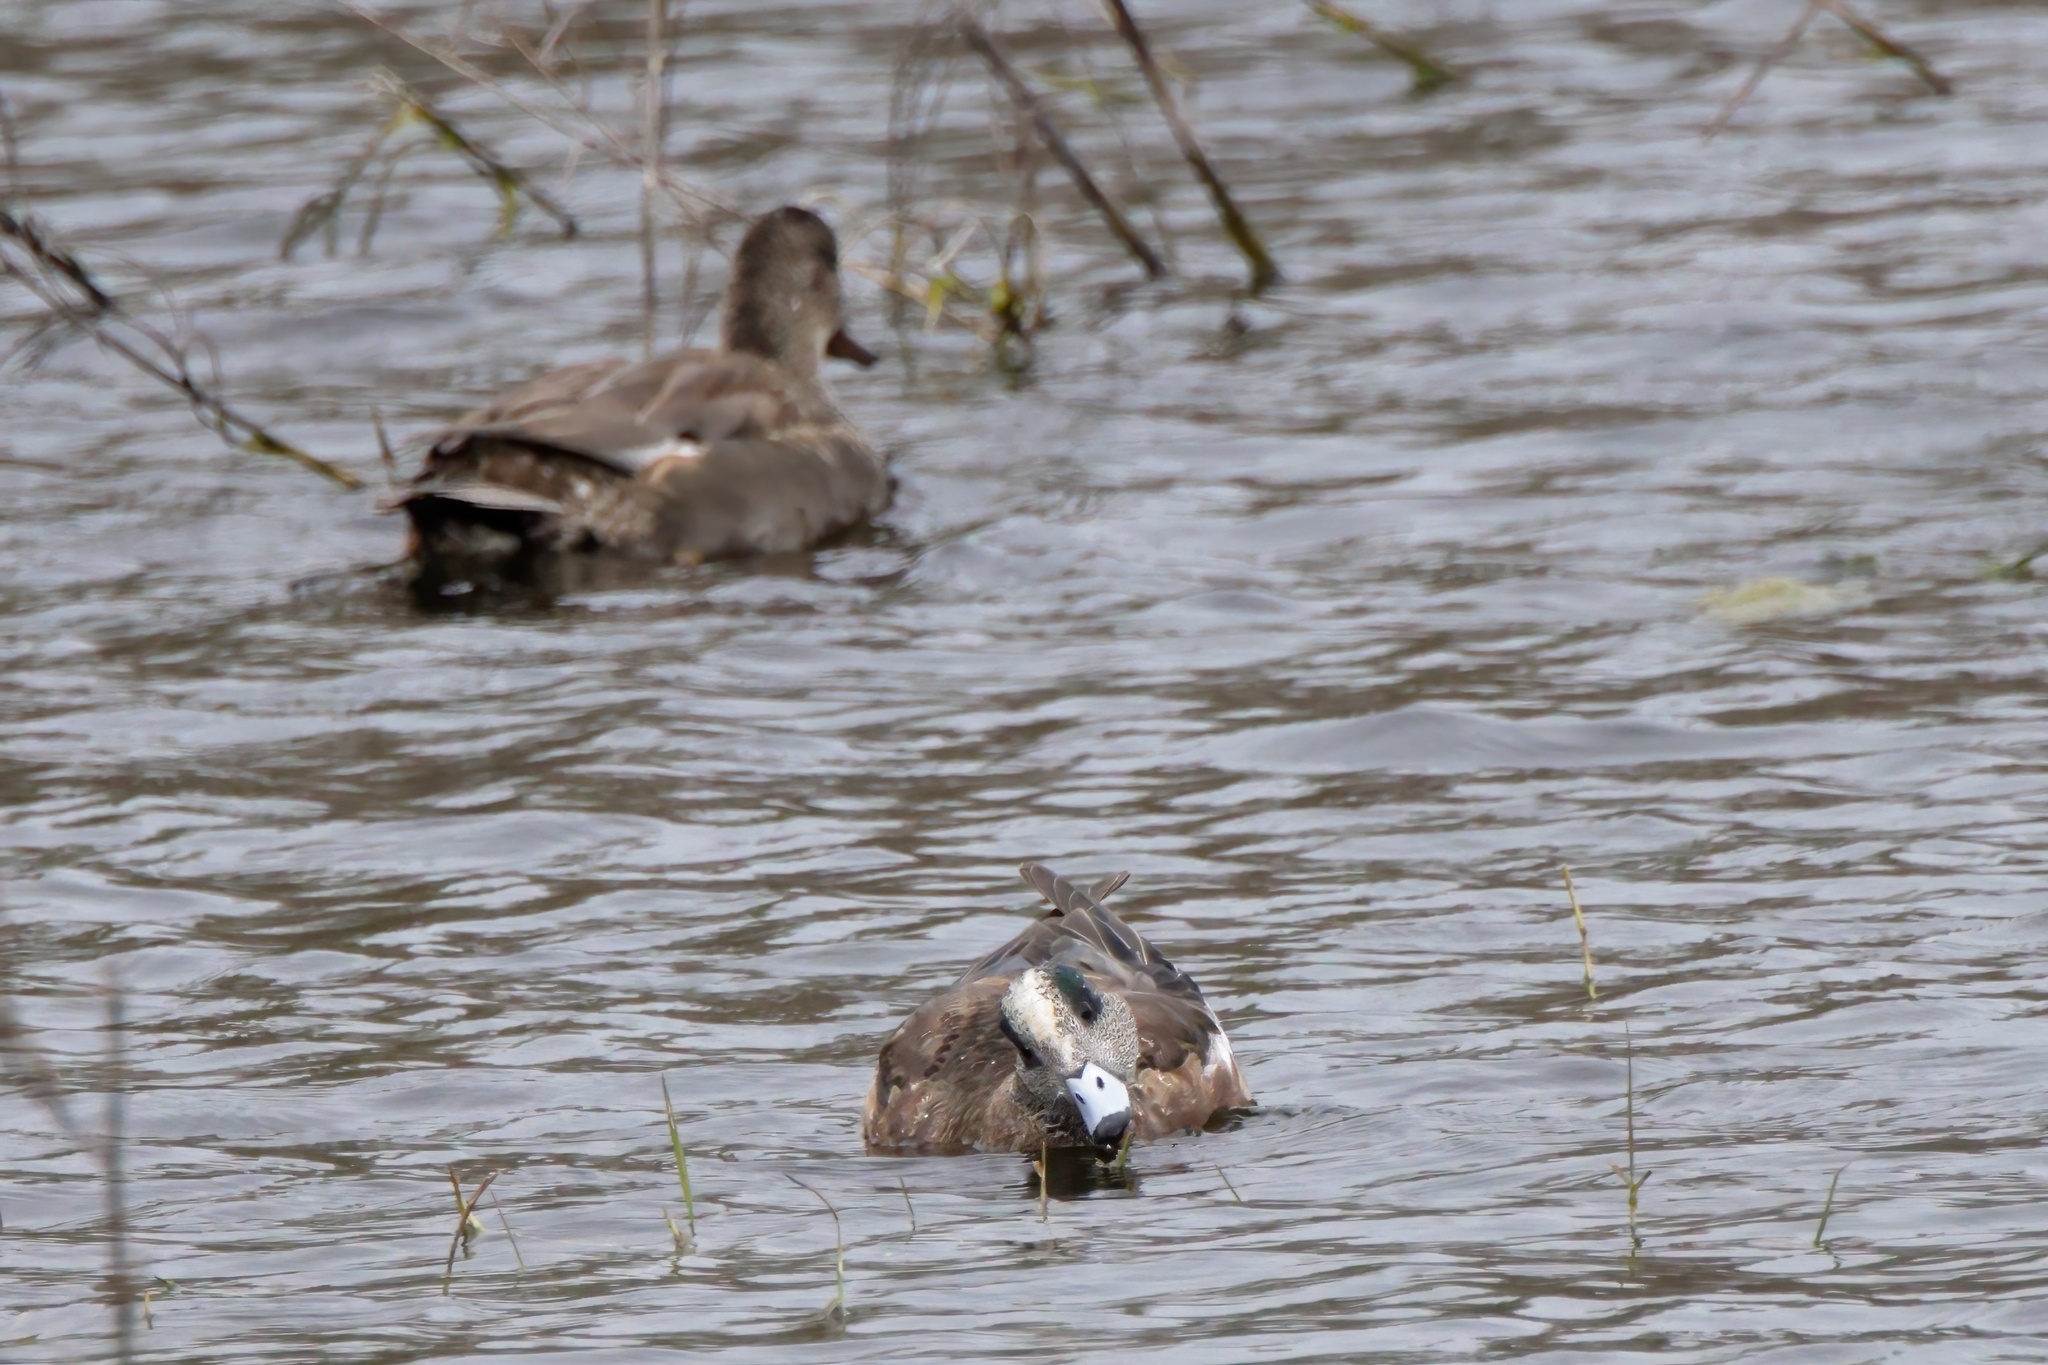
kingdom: Animalia
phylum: Chordata
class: Aves
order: Anseriformes
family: Anatidae
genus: Mareca
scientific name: Mareca americana
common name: American wigeon
